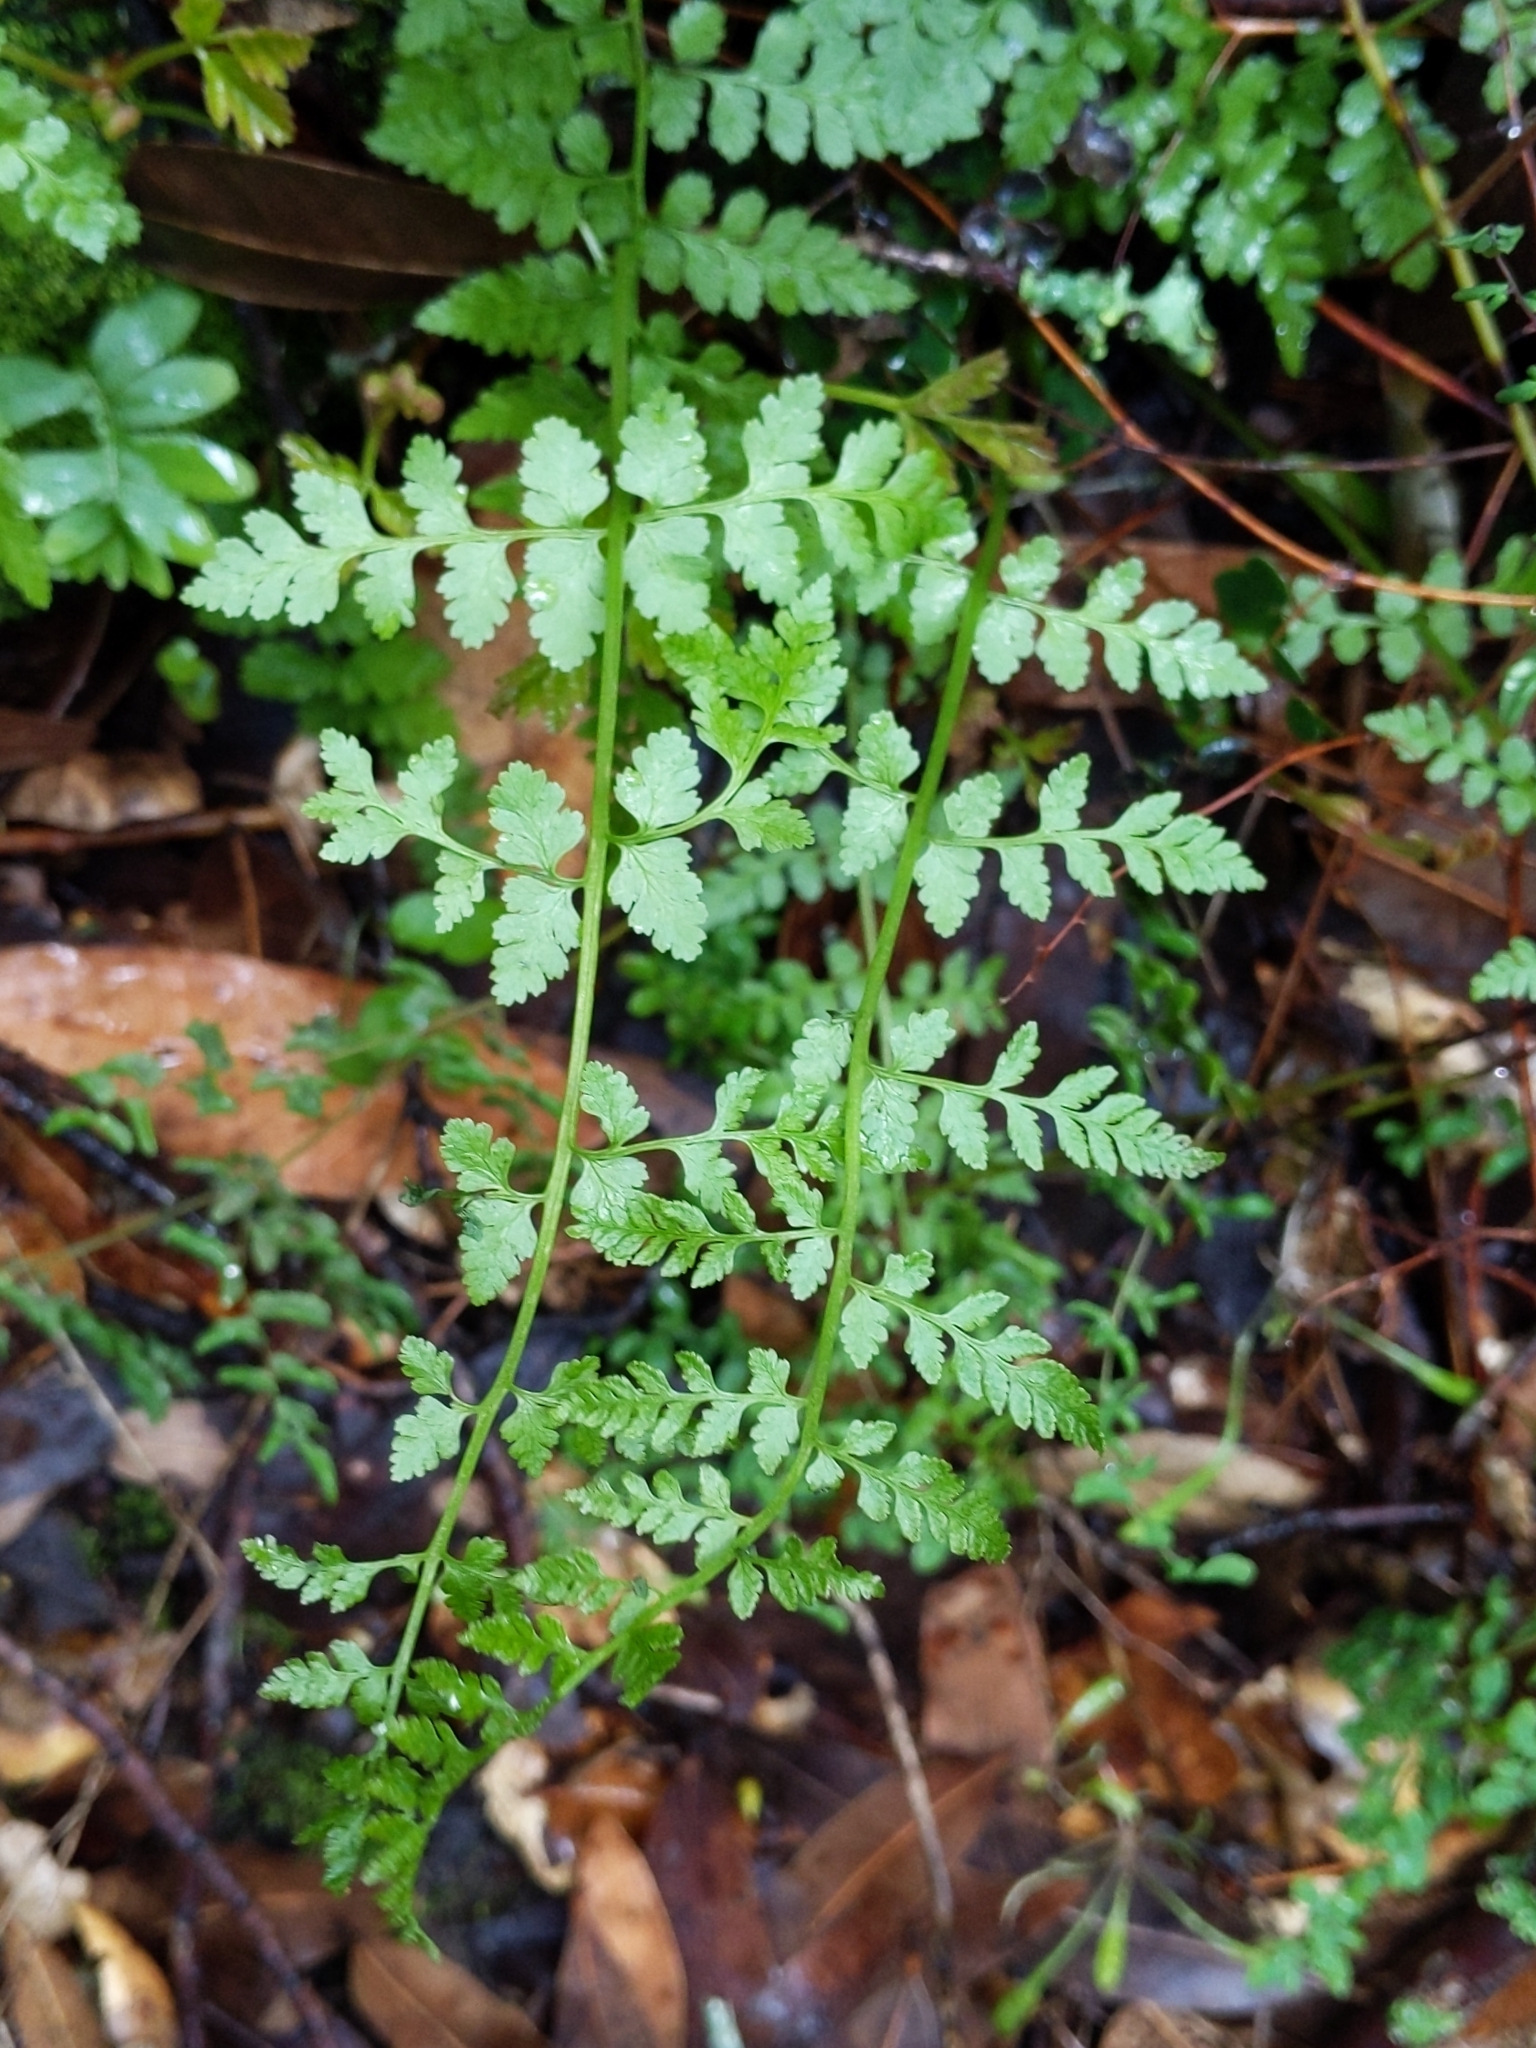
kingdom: Plantae
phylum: Tracheophyta
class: Polypodiopsida
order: Polypodiales
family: Cystopteridaceae
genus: Cystopteris
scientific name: Cystopteris fragilis
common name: Brittle bladder fern
